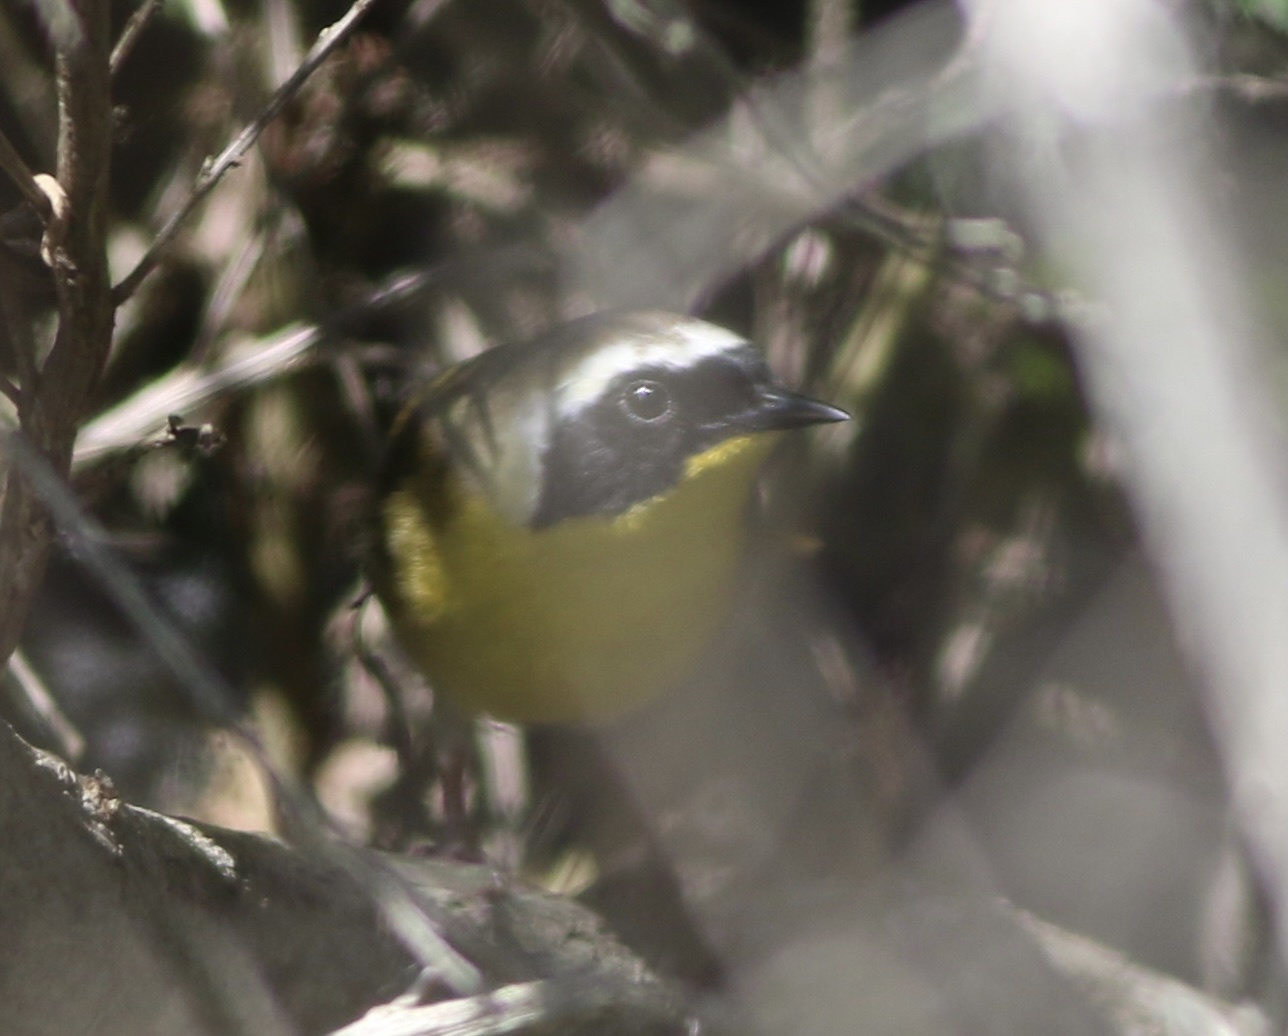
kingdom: Animalia
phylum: Chordata
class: Aves
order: Passeriformes
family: Parulidae
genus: Geothlypis
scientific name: Geothlypis trichas
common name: Common yellowthroat
